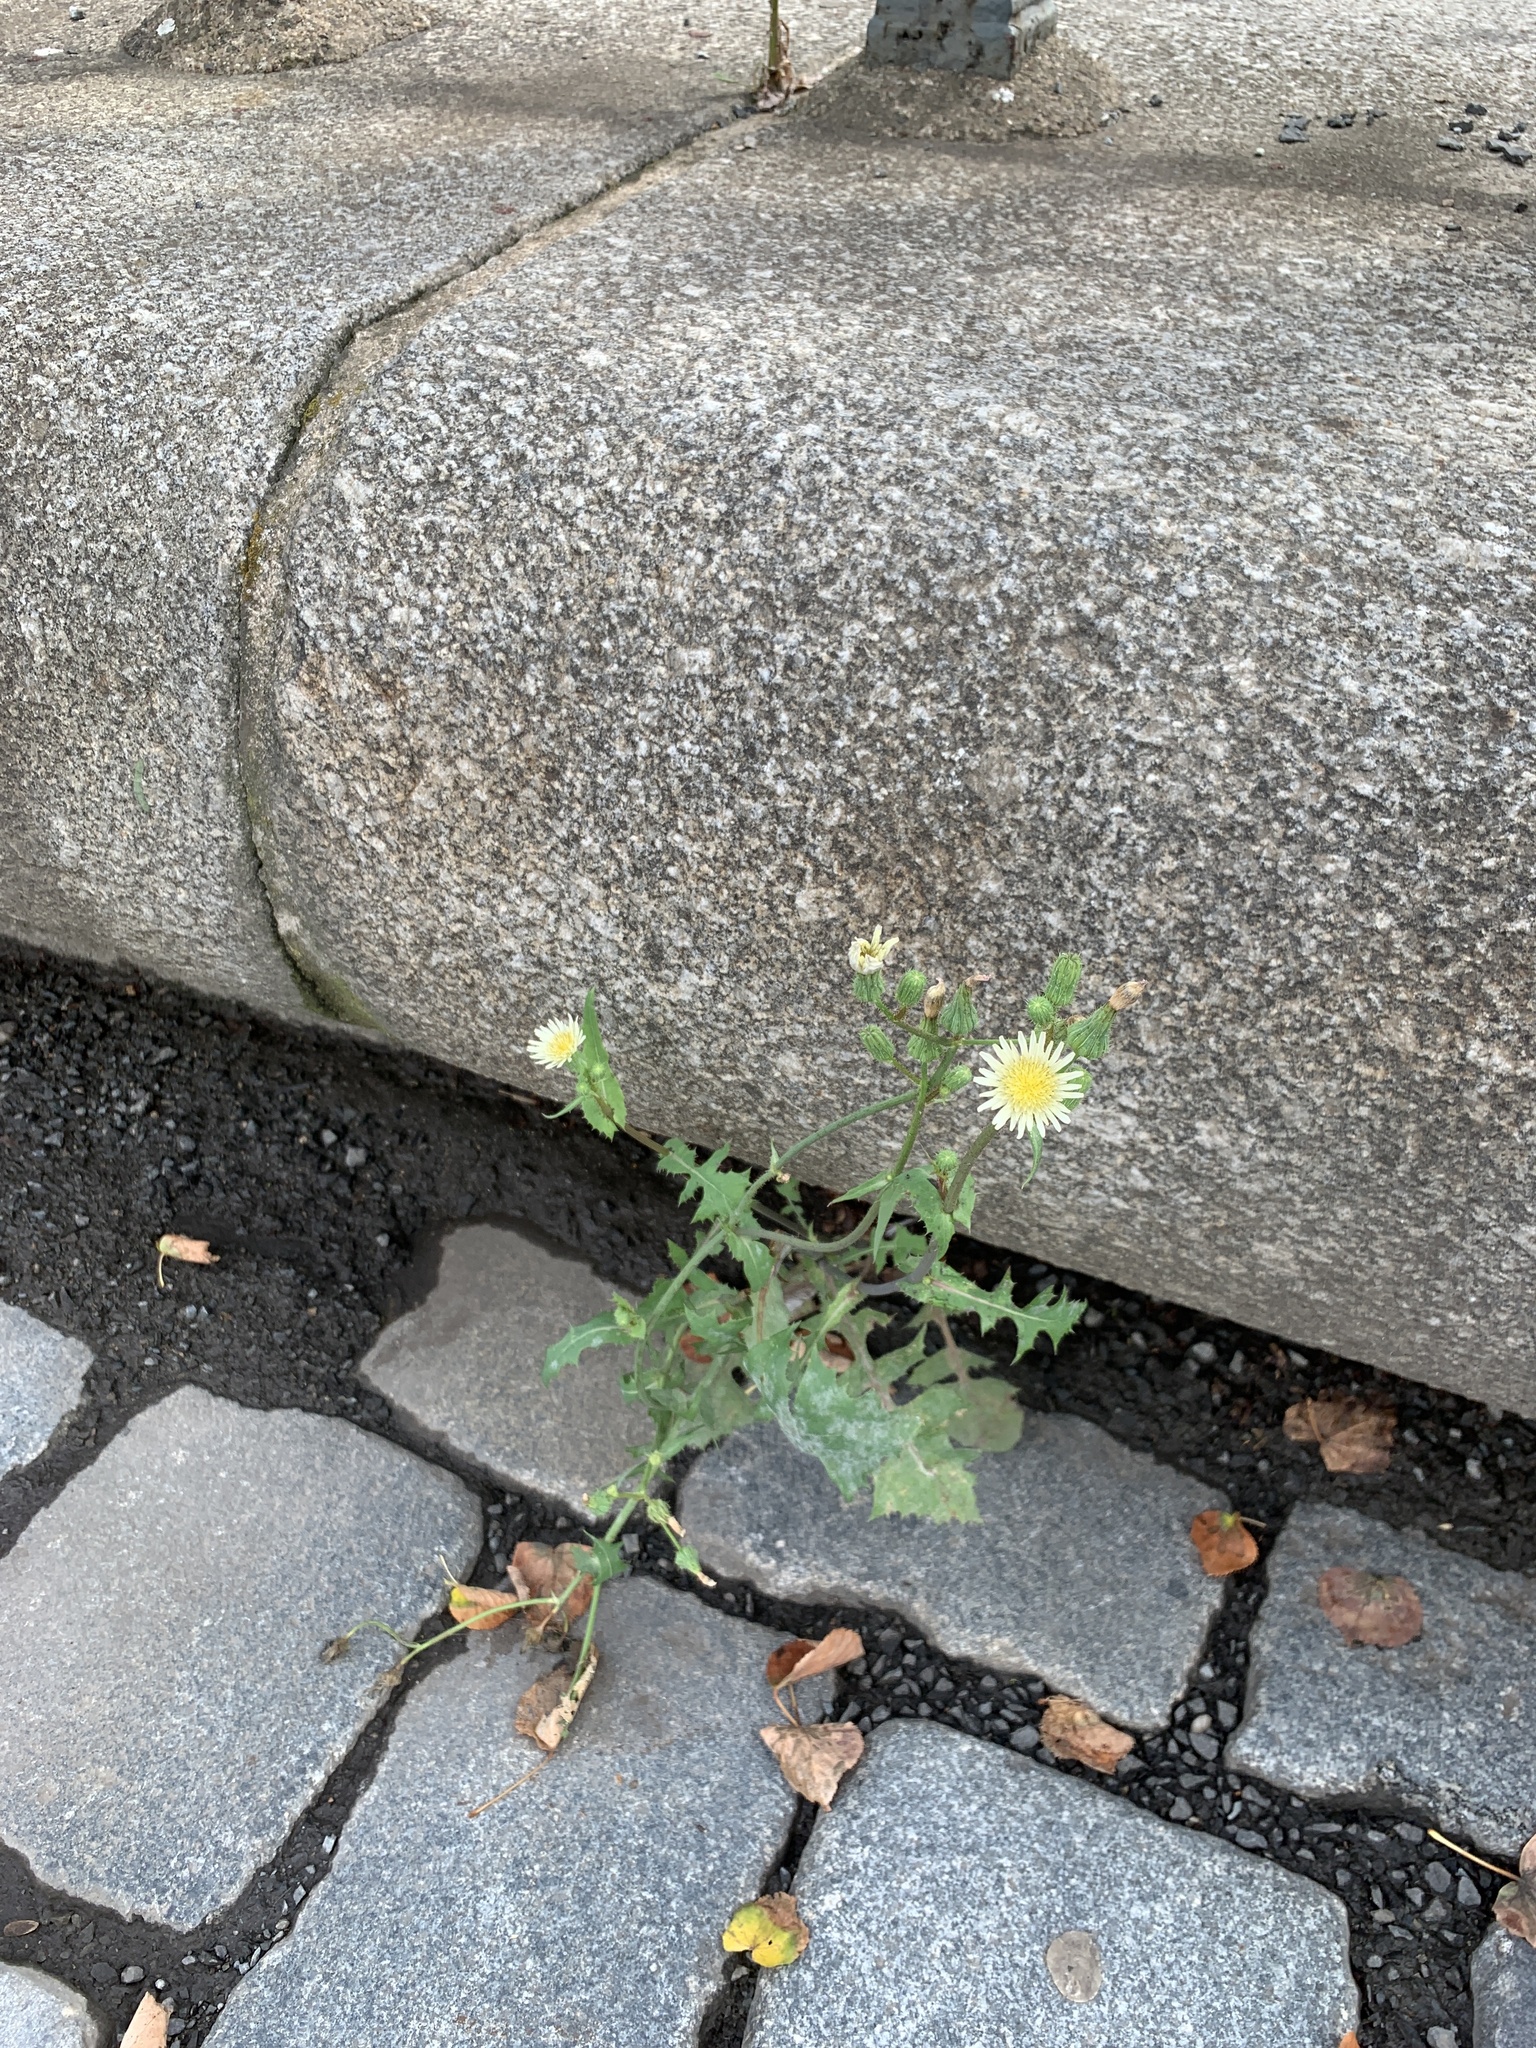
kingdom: Plantae
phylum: Tracheophyta
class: Magnoliopsida
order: Asterales
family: Asteraceae
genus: Sonchus
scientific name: Sonchus oleraceus
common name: Common sowthistle
